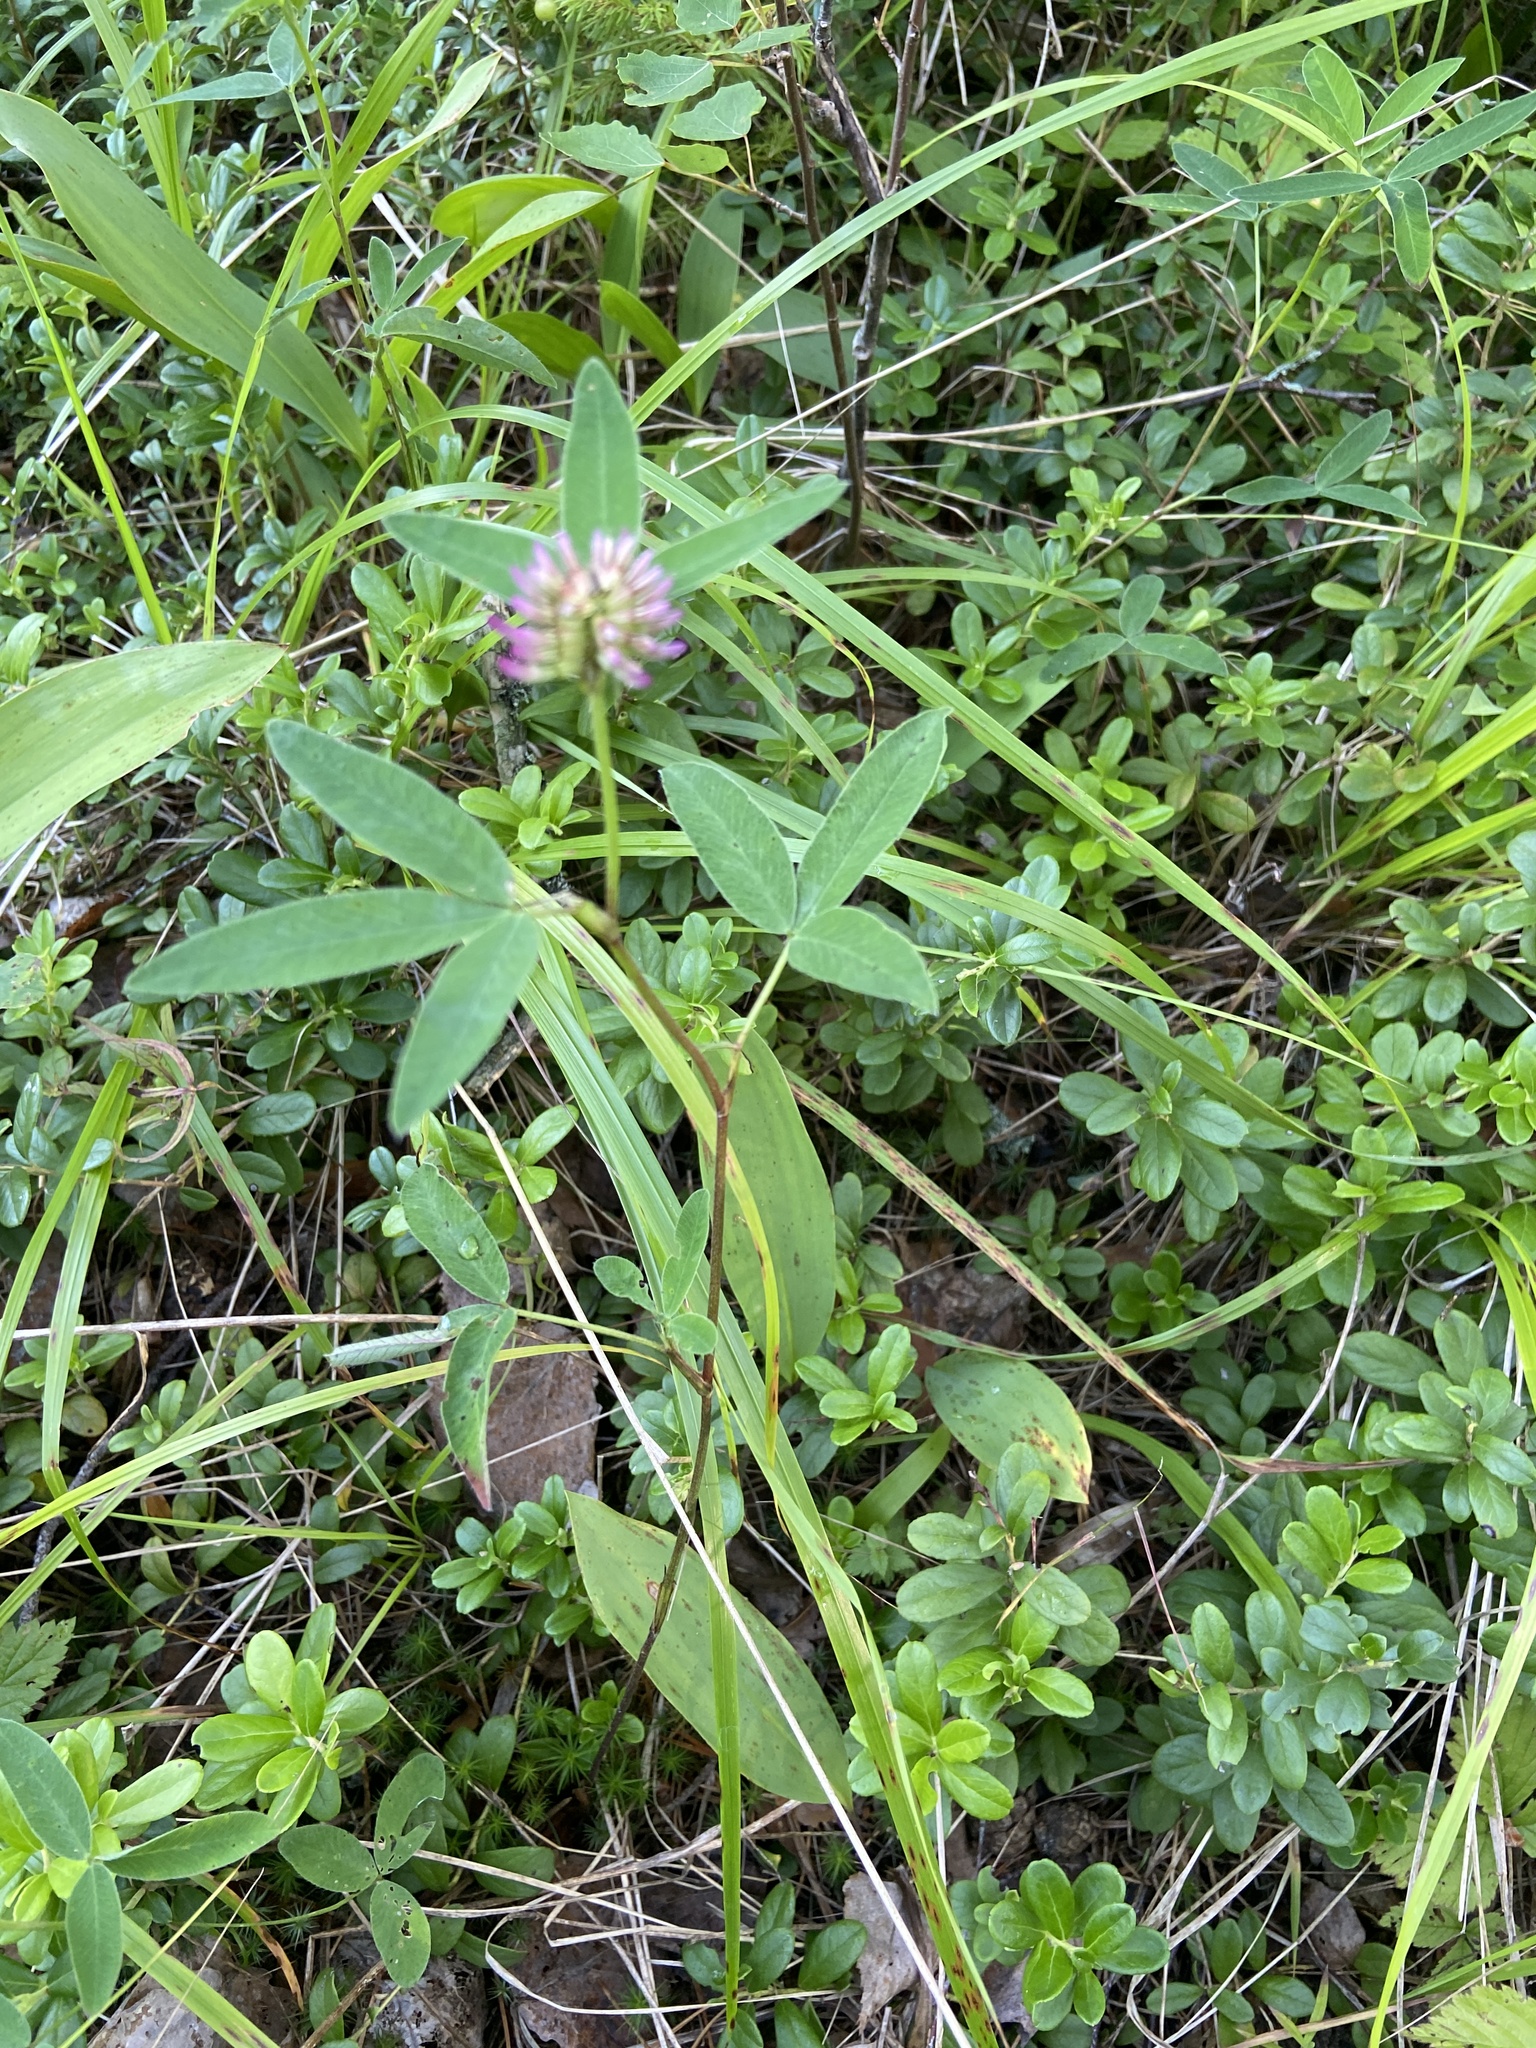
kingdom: Plantae
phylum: Tracheophyta
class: Magnoliopsida
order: Fabales
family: Fabaceae
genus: Trifolium
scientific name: Trifolium medium
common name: Zigzag clover
